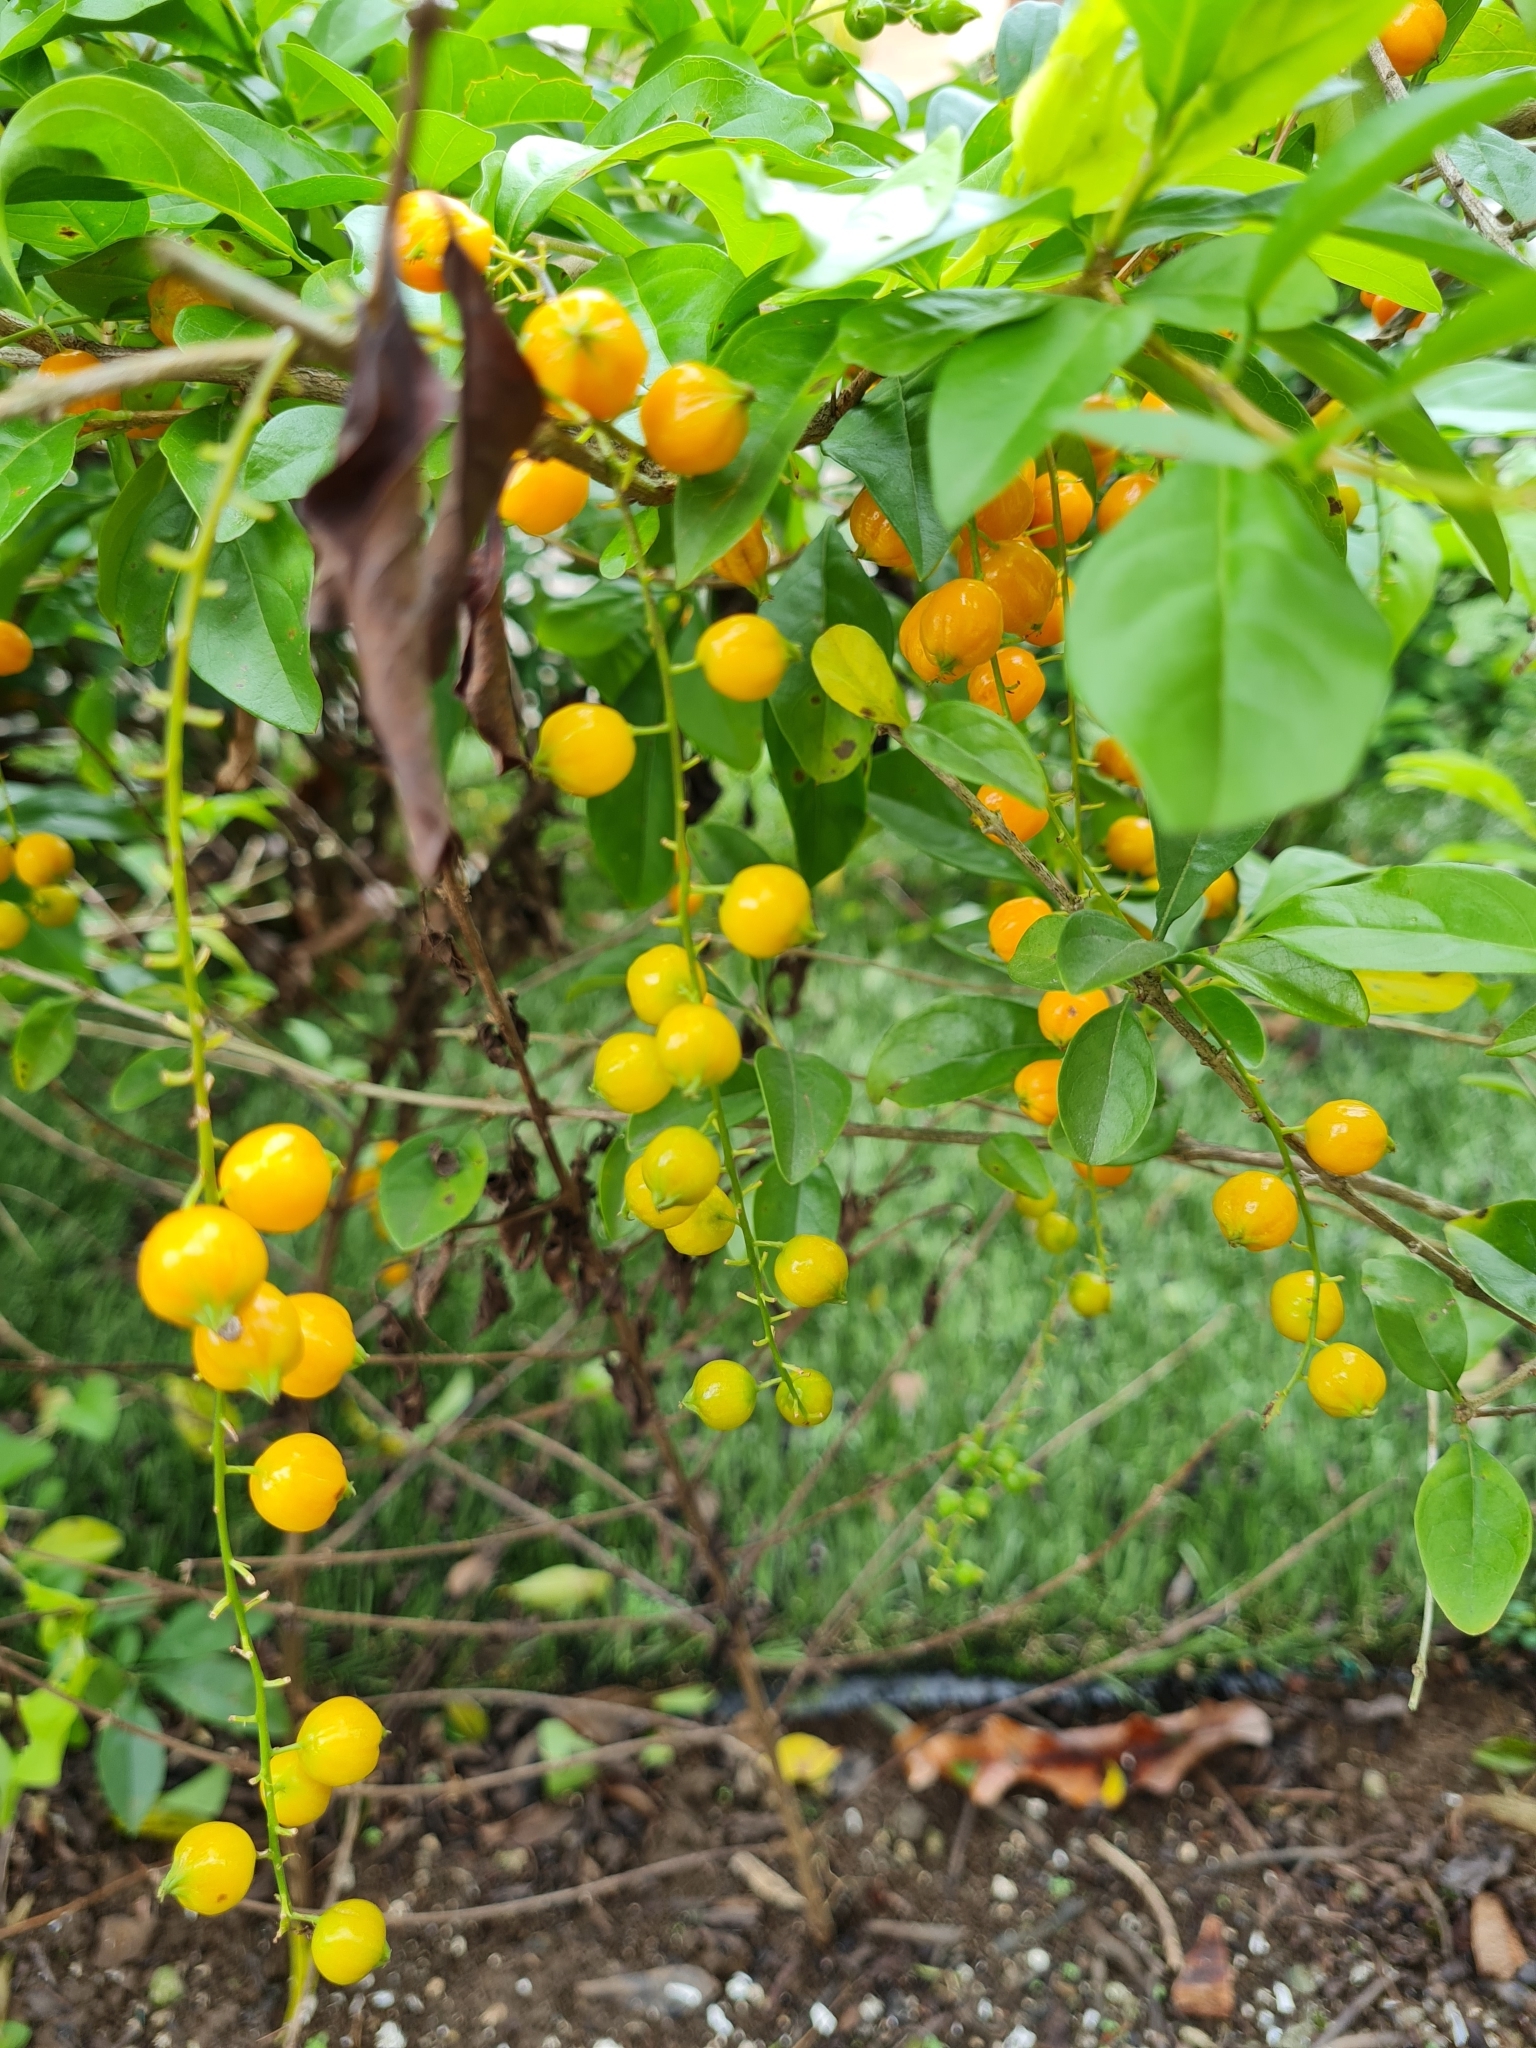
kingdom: Plantae
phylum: Tracheophyta
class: Magnoliopsida
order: Lamiales
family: Verbenaceae
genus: Duranta
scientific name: Duranta erecta
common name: Golden dewdrops
